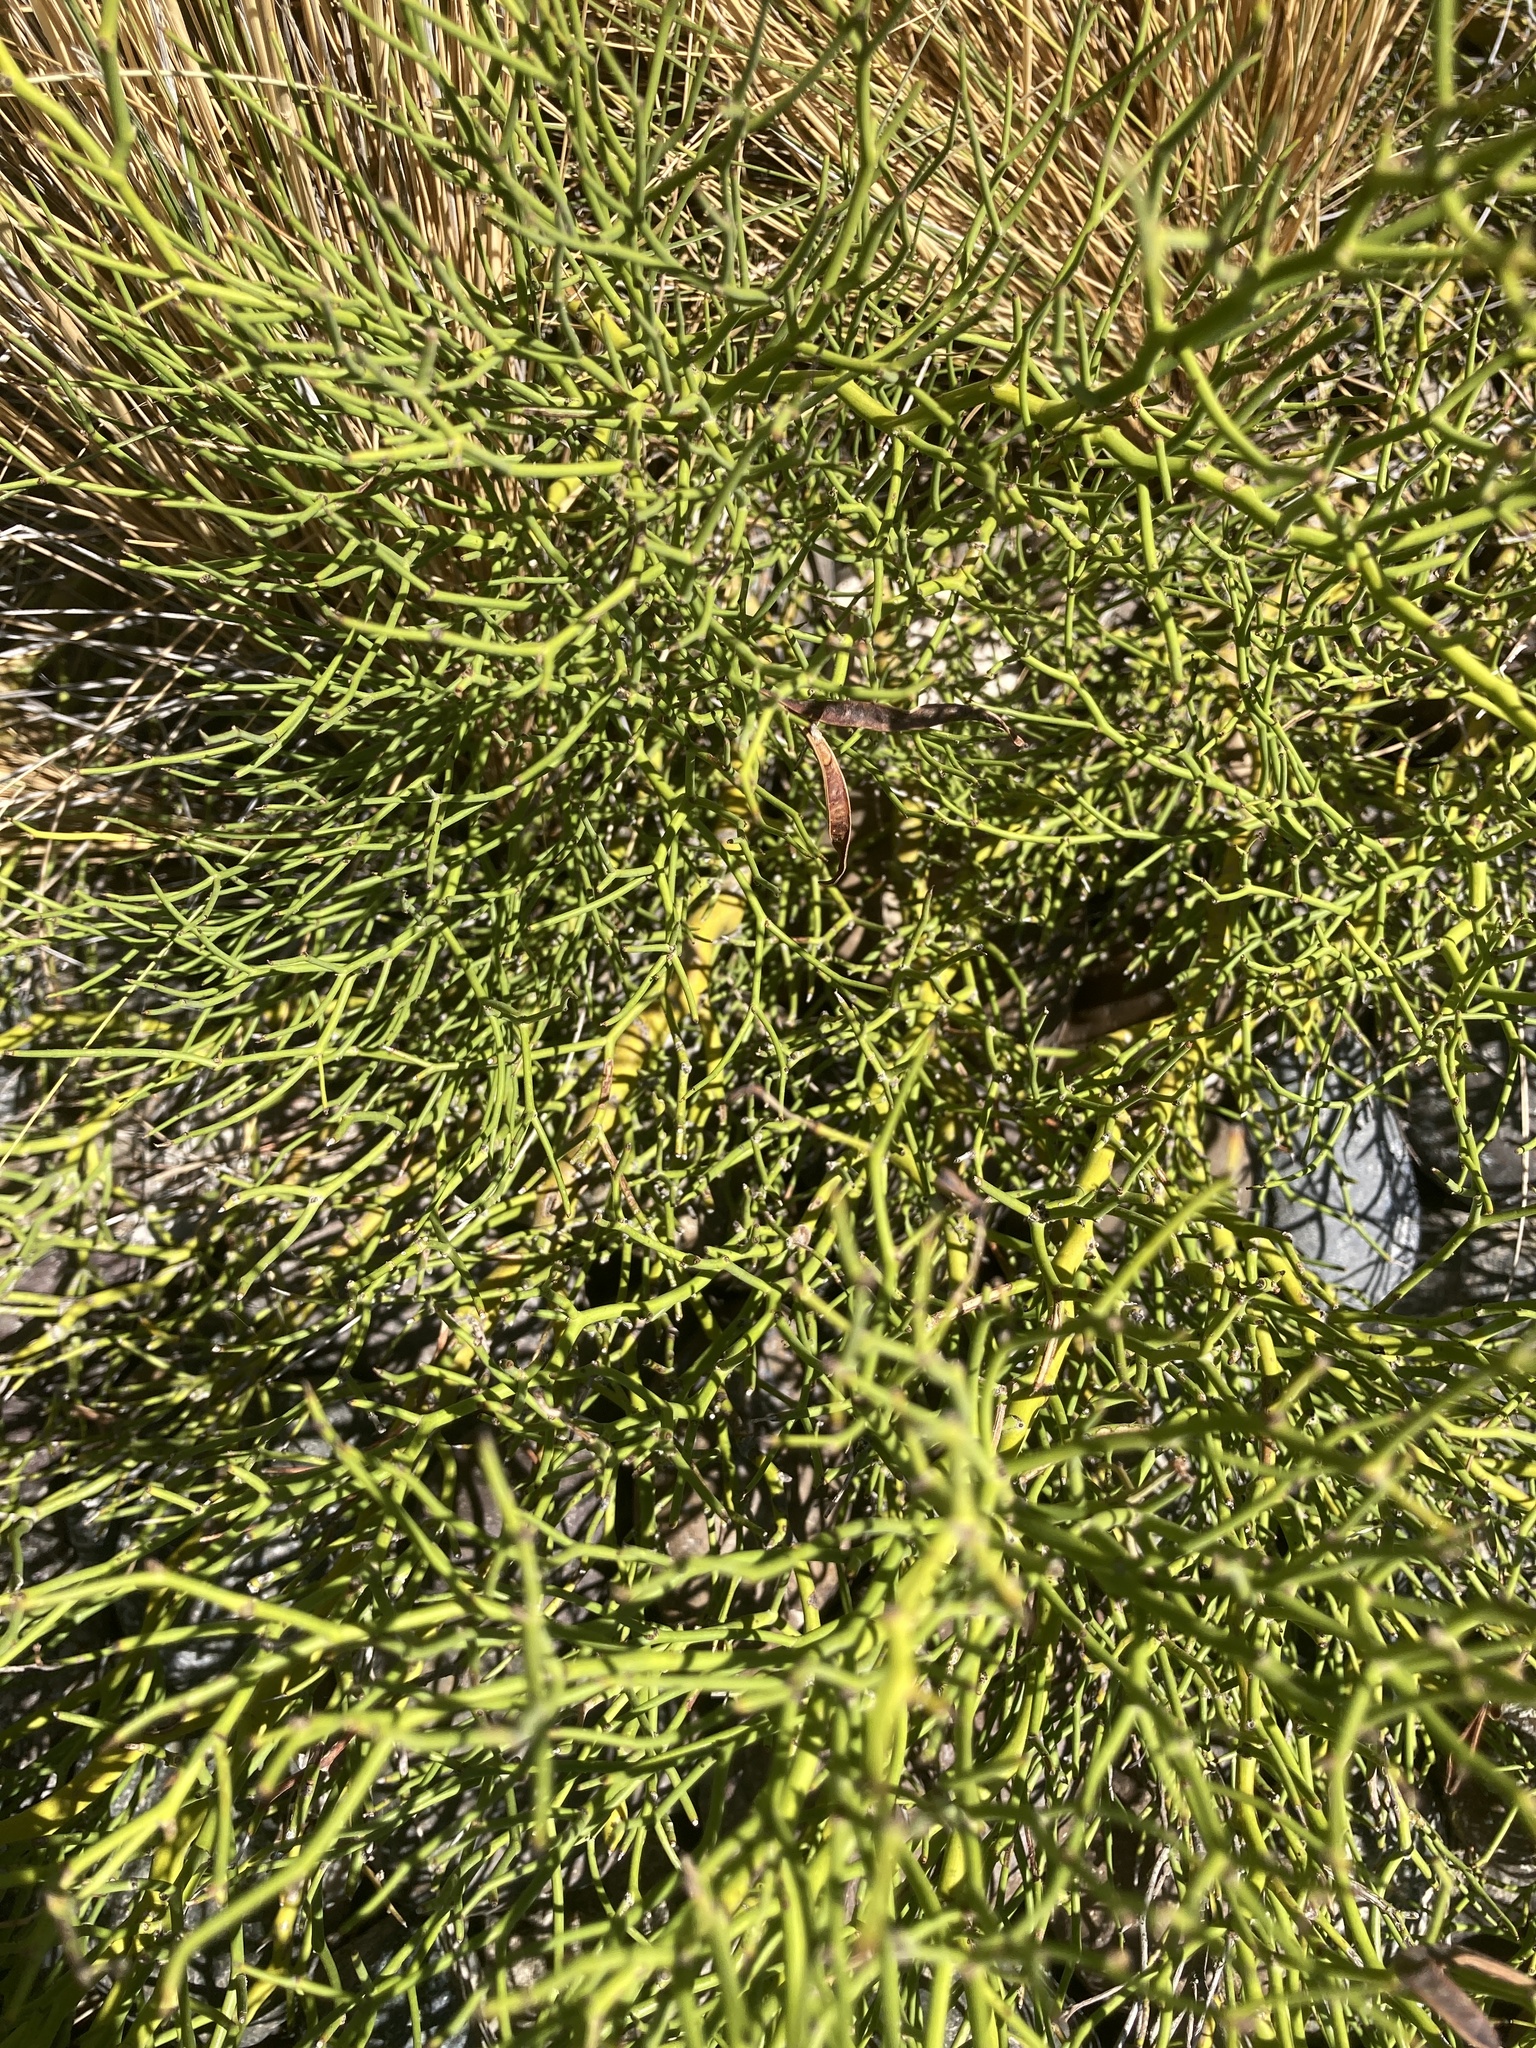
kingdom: Plantae
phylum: Tracheophyta
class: Magnoliopsida
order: Fabales
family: Fabaceae
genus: Senna
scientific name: Senna pachyrrhiza
